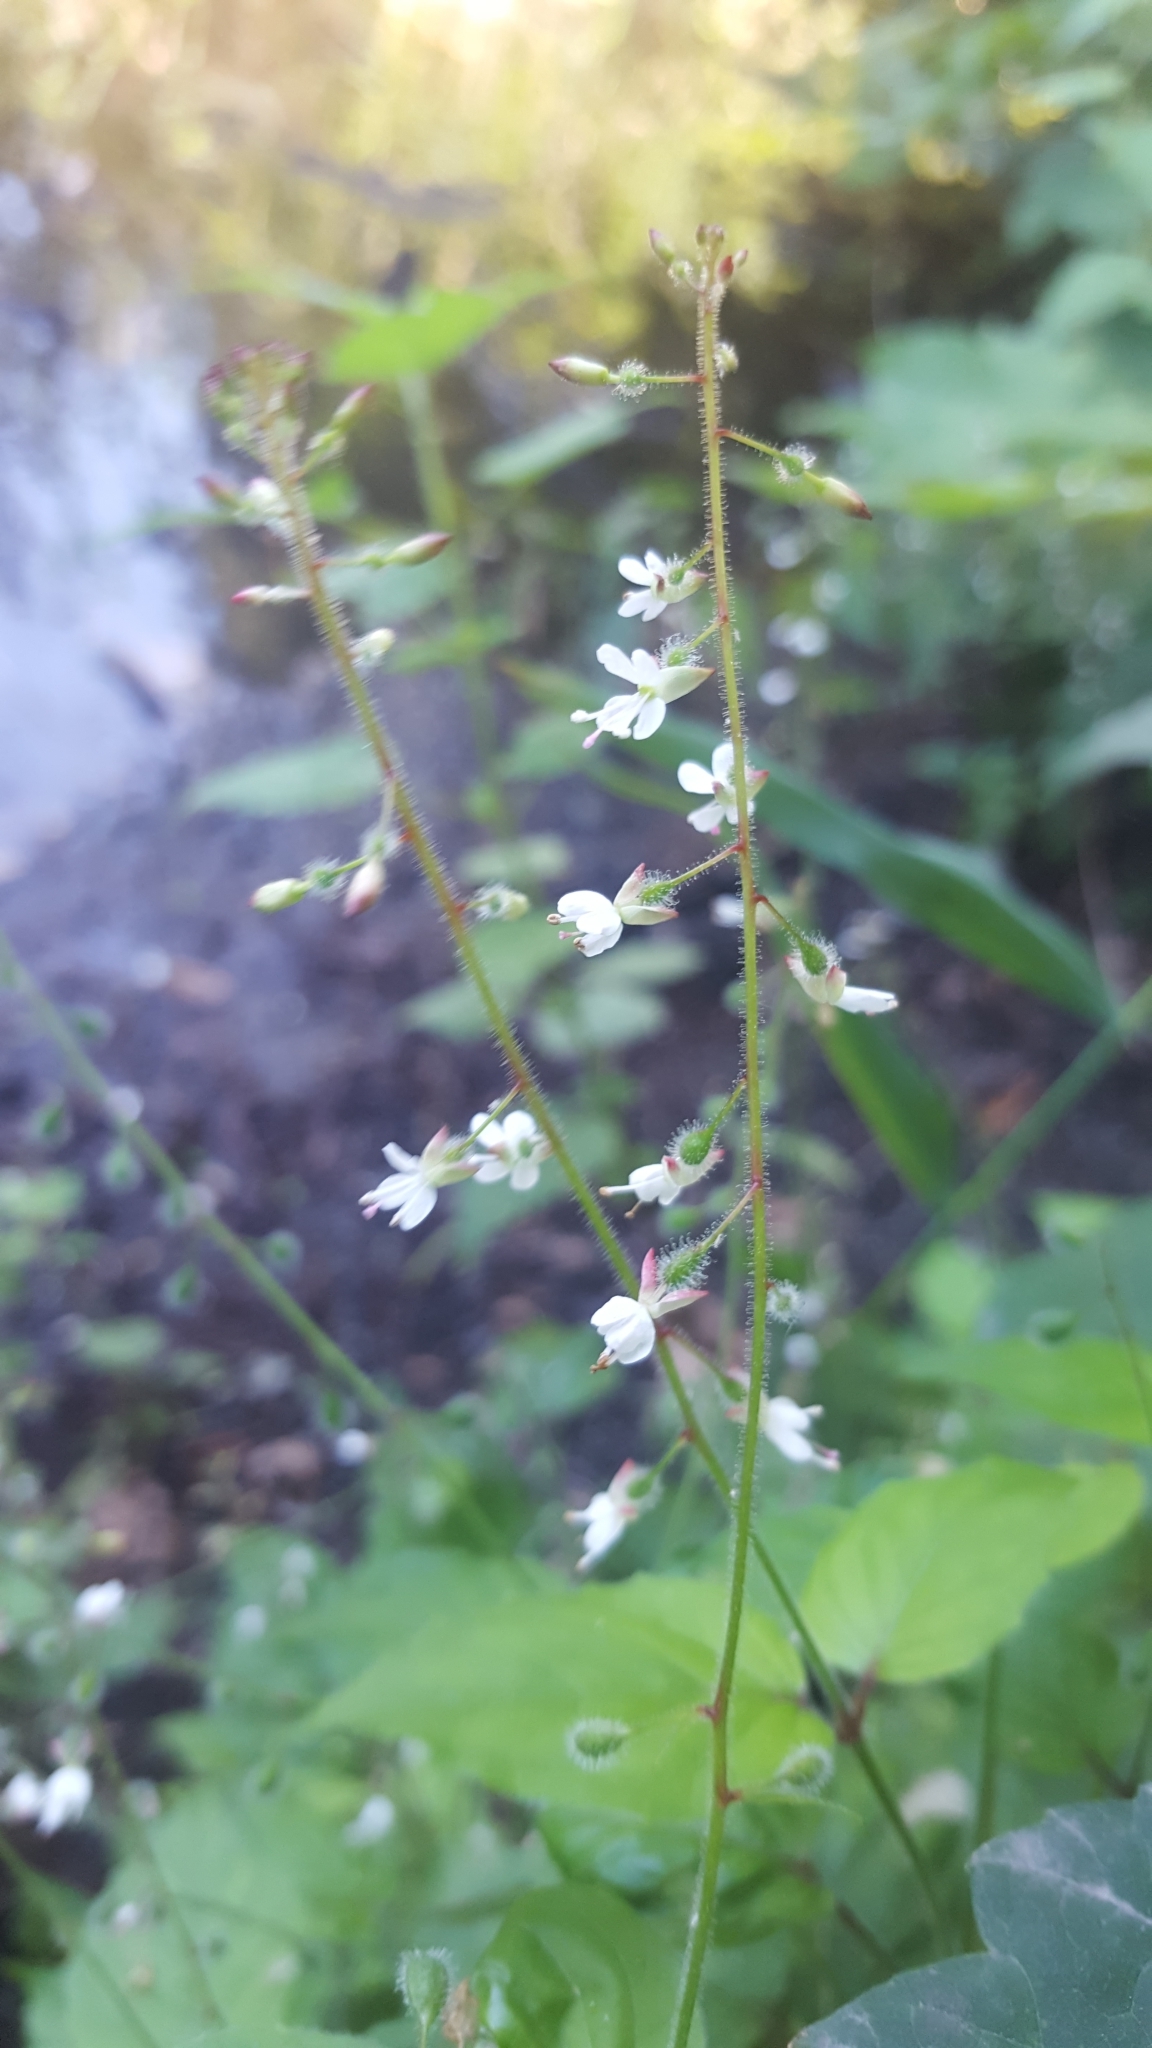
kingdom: Plantae
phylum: Tracheophyta
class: Magnoliopsida
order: Myrtales
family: Onagraceae
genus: Circaea
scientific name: Circaea lutetiana
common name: Enchanter's-nightshade
